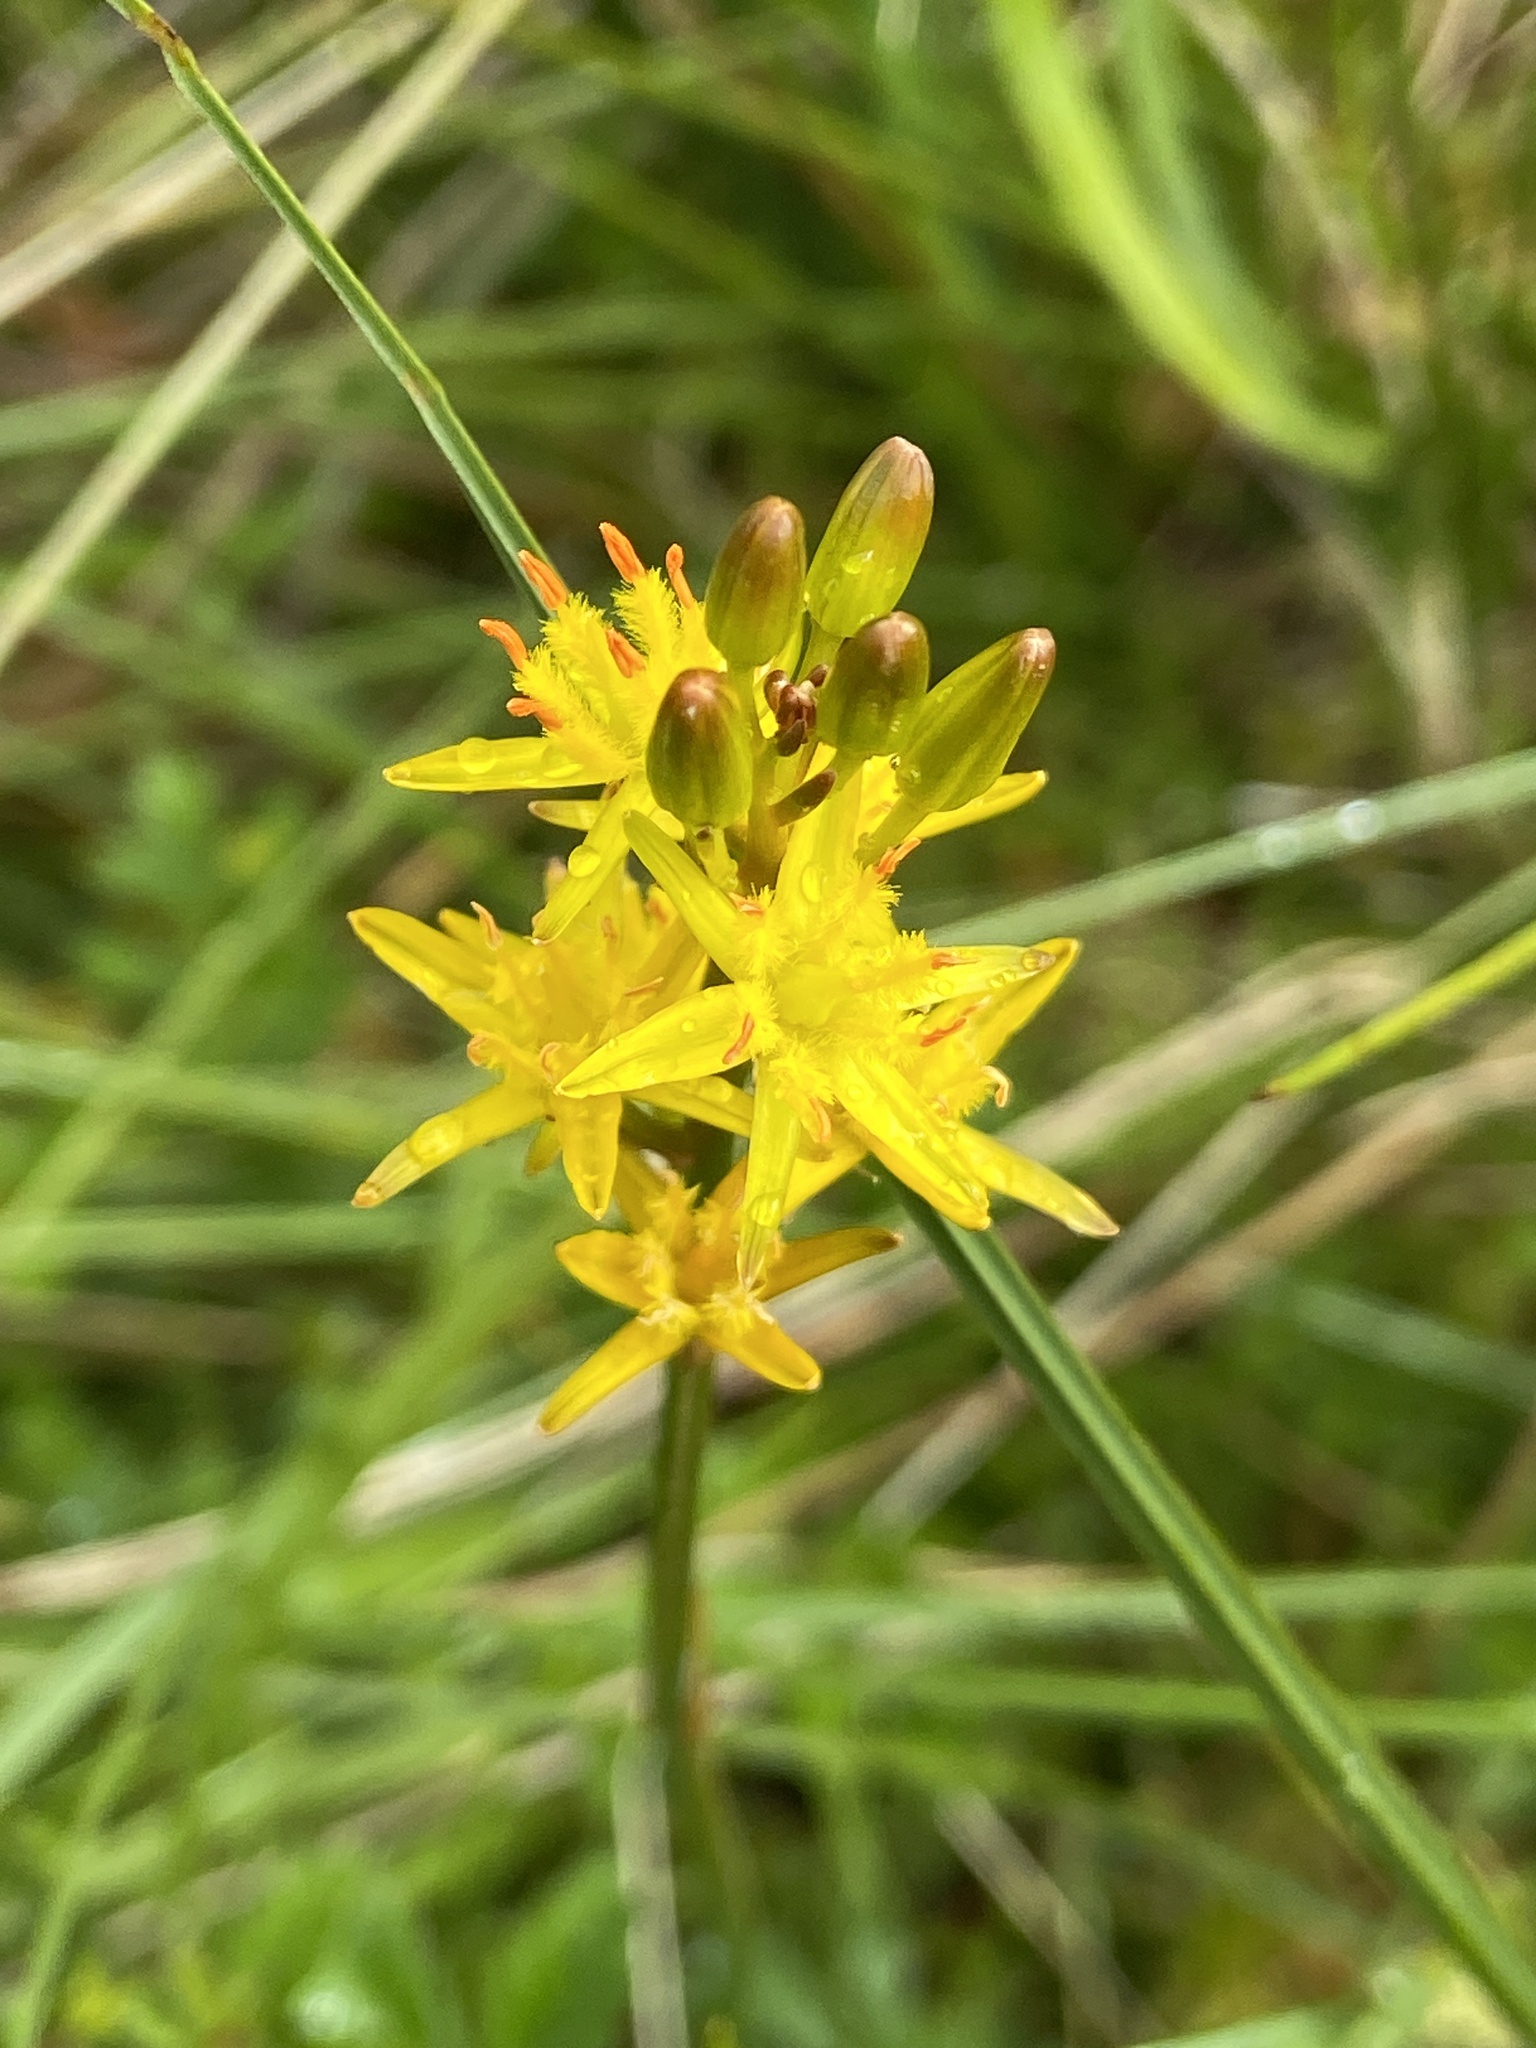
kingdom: Plantae
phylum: Tracheophyta
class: Liliopsida
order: Dioscoreales
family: Nartheciaceae
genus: Narthecium
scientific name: Narthecium ossifragum
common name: Bog asphodel
